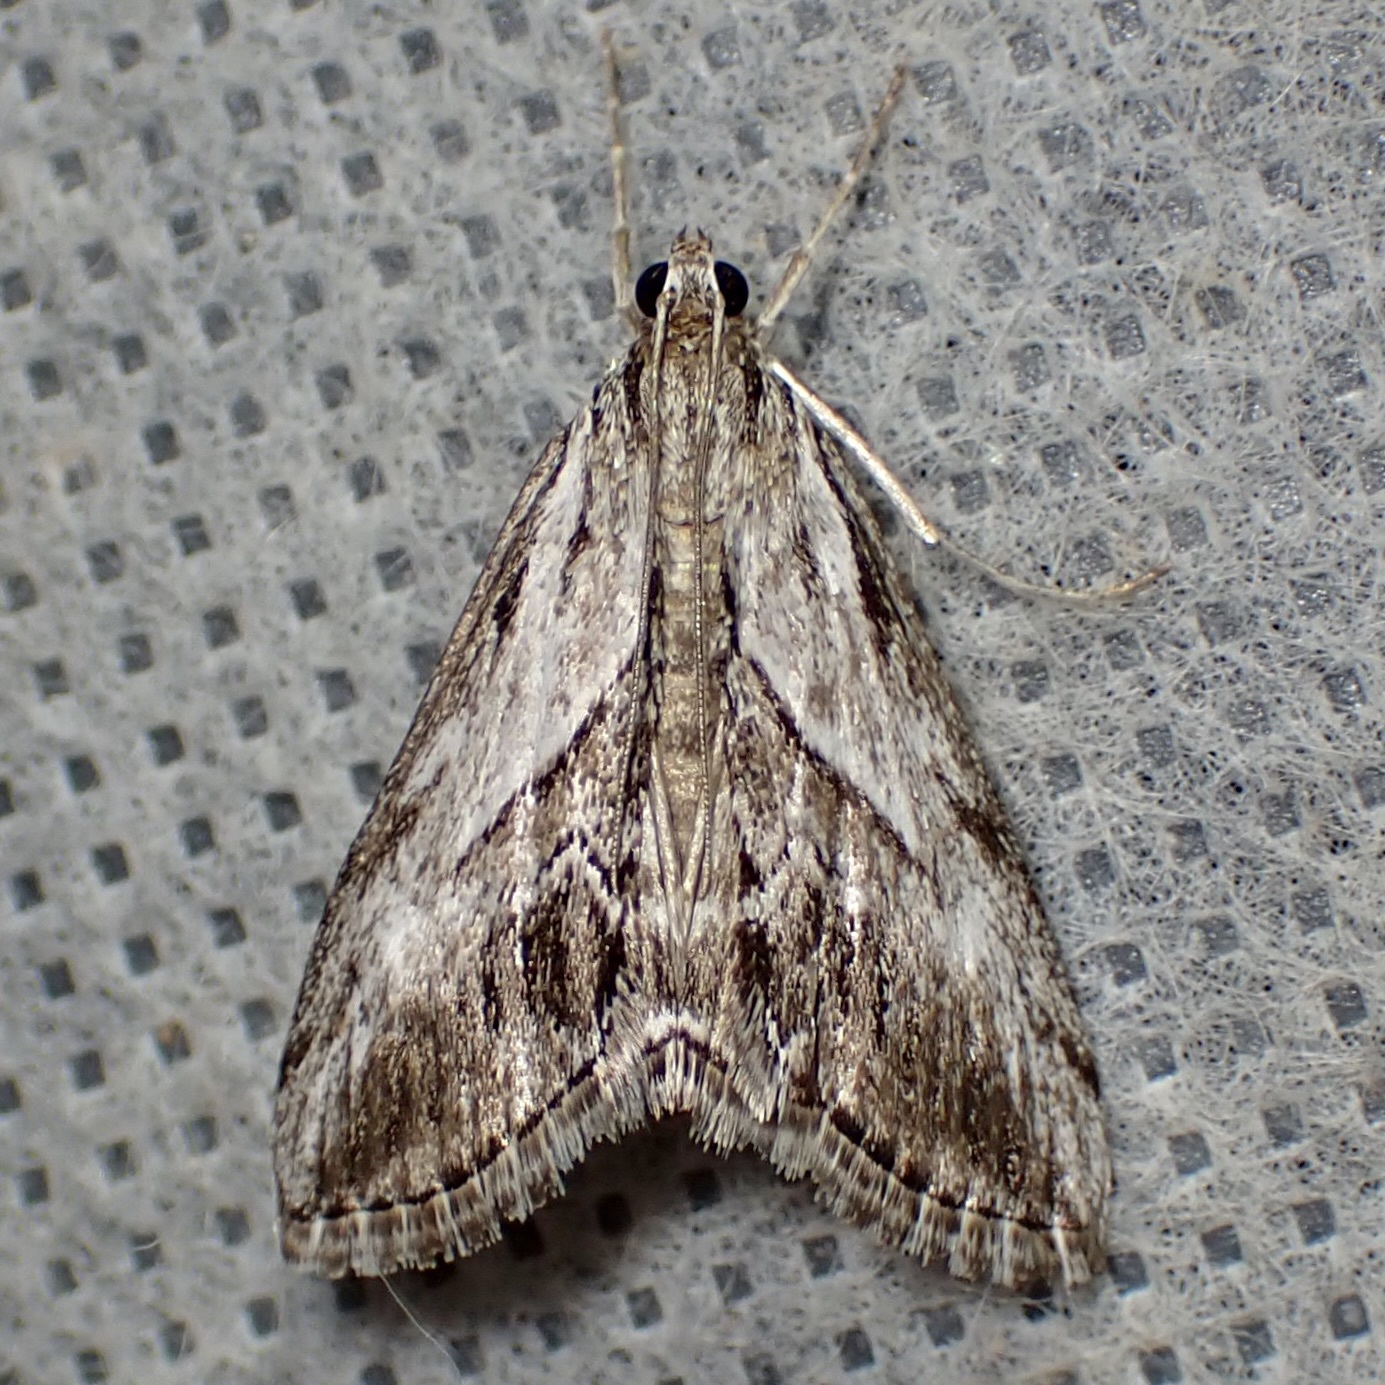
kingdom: Animalia
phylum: Arthropoda
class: Insecta
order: Lepidoptera
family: Crambidae
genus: Evergestis
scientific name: Evergestis simulatilis
